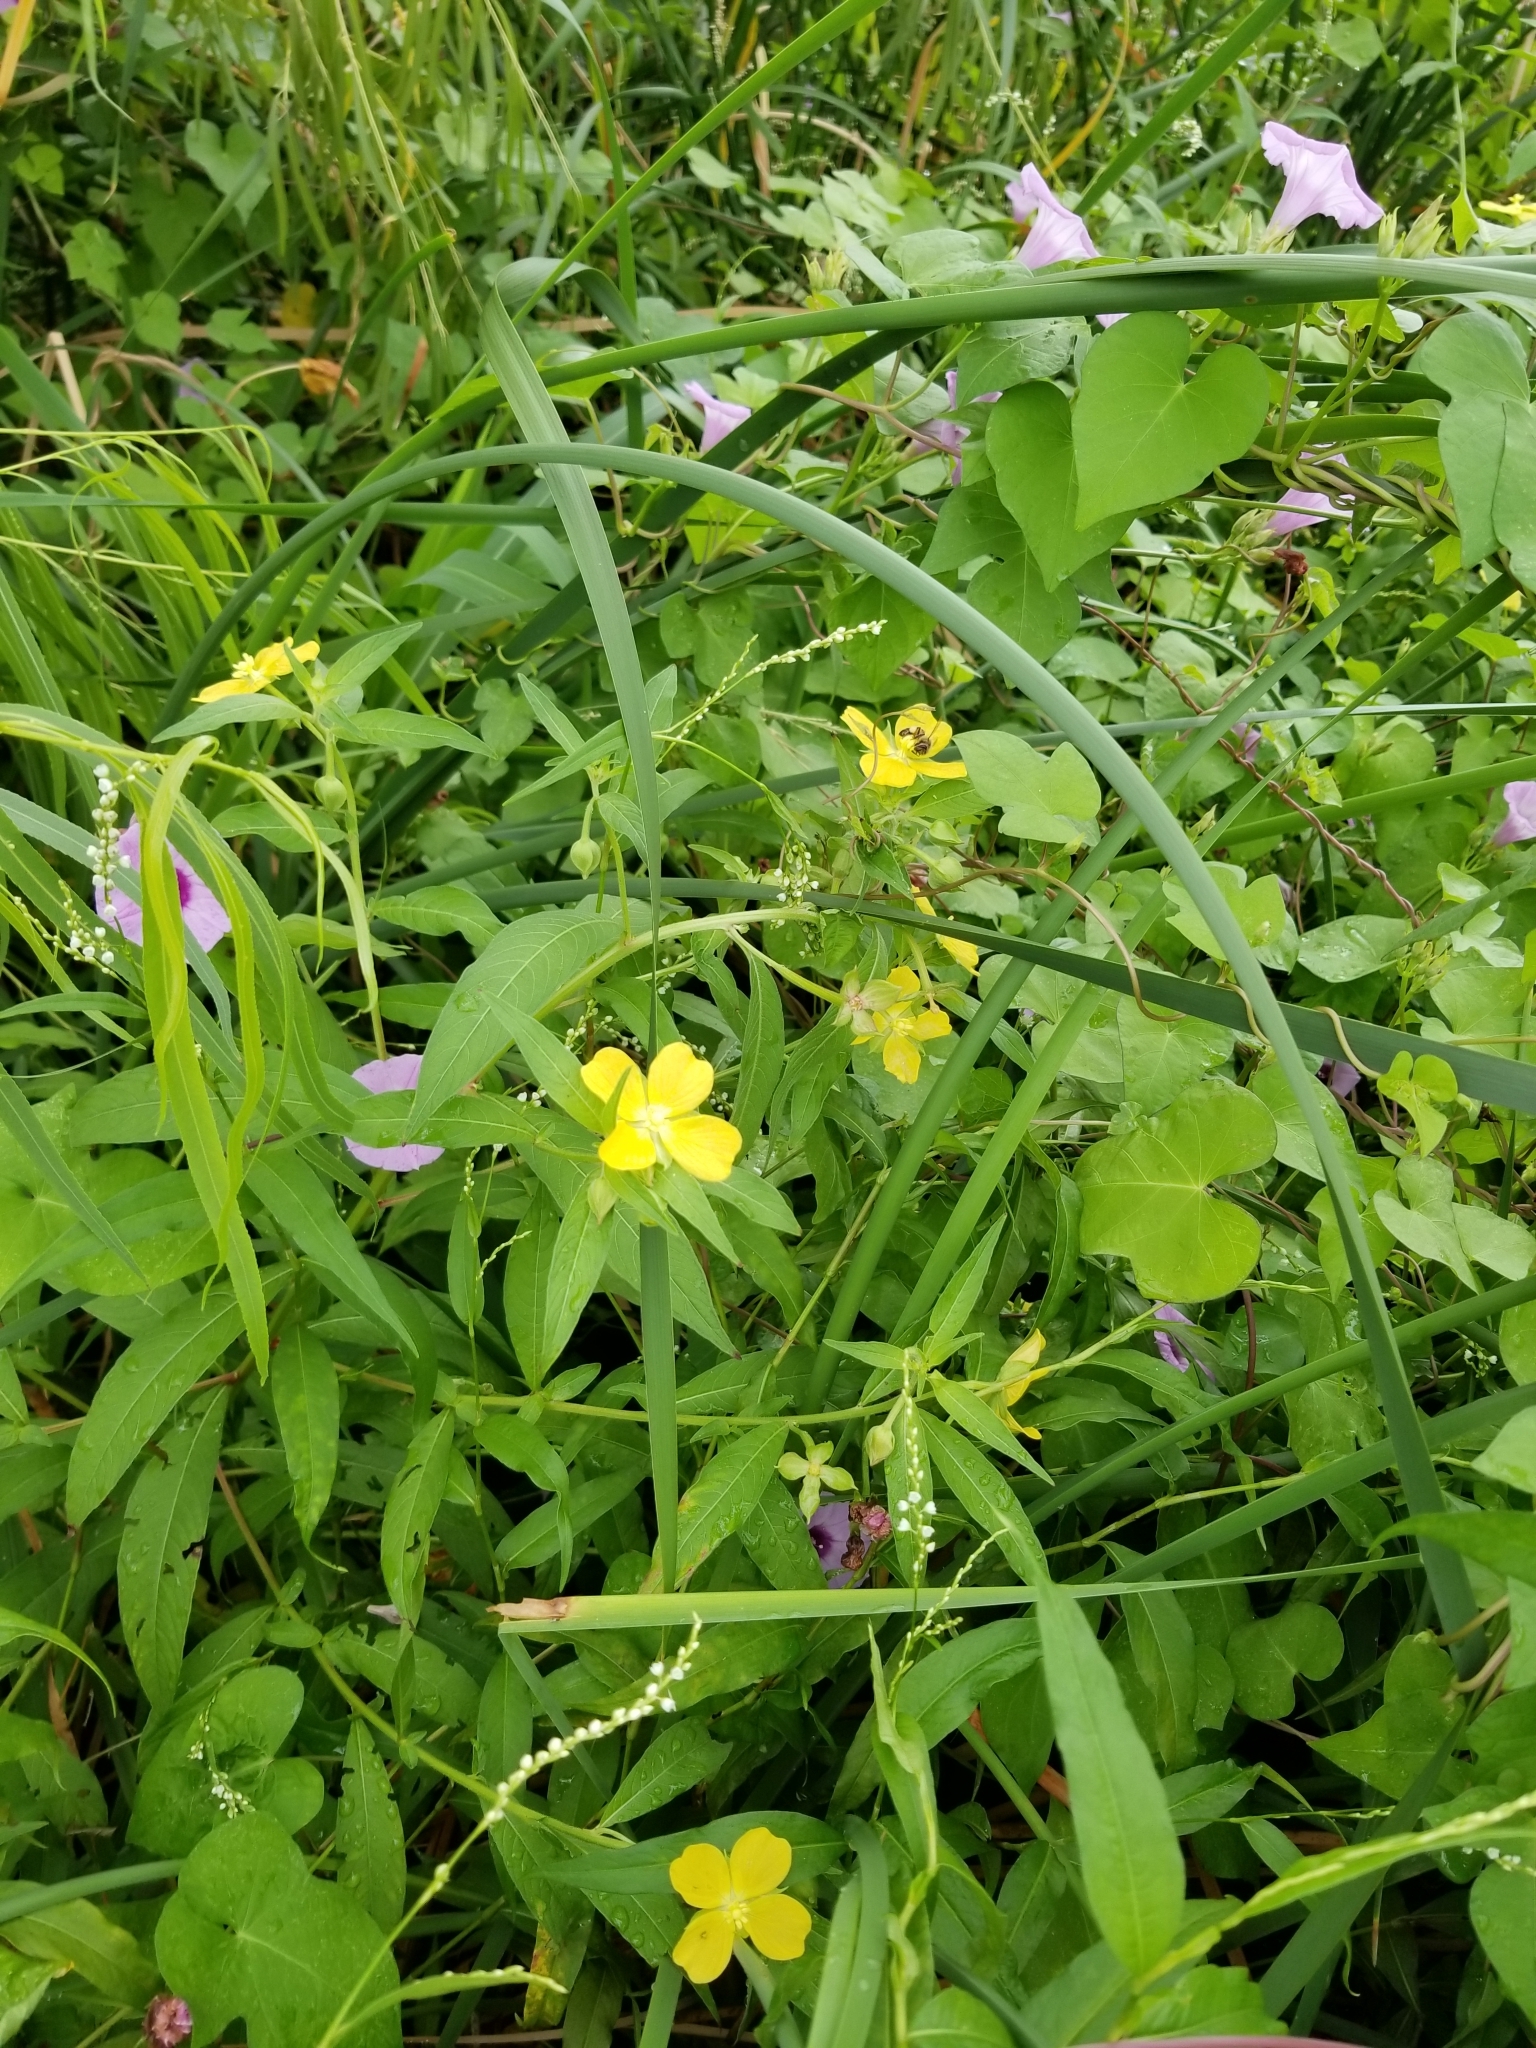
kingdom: Plantae
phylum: Tracheophyta
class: Magnoliopsida
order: Myrtales
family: Onagraceae
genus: Ludwigia
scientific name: Ludwigia octovalvis
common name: Water-primrose
